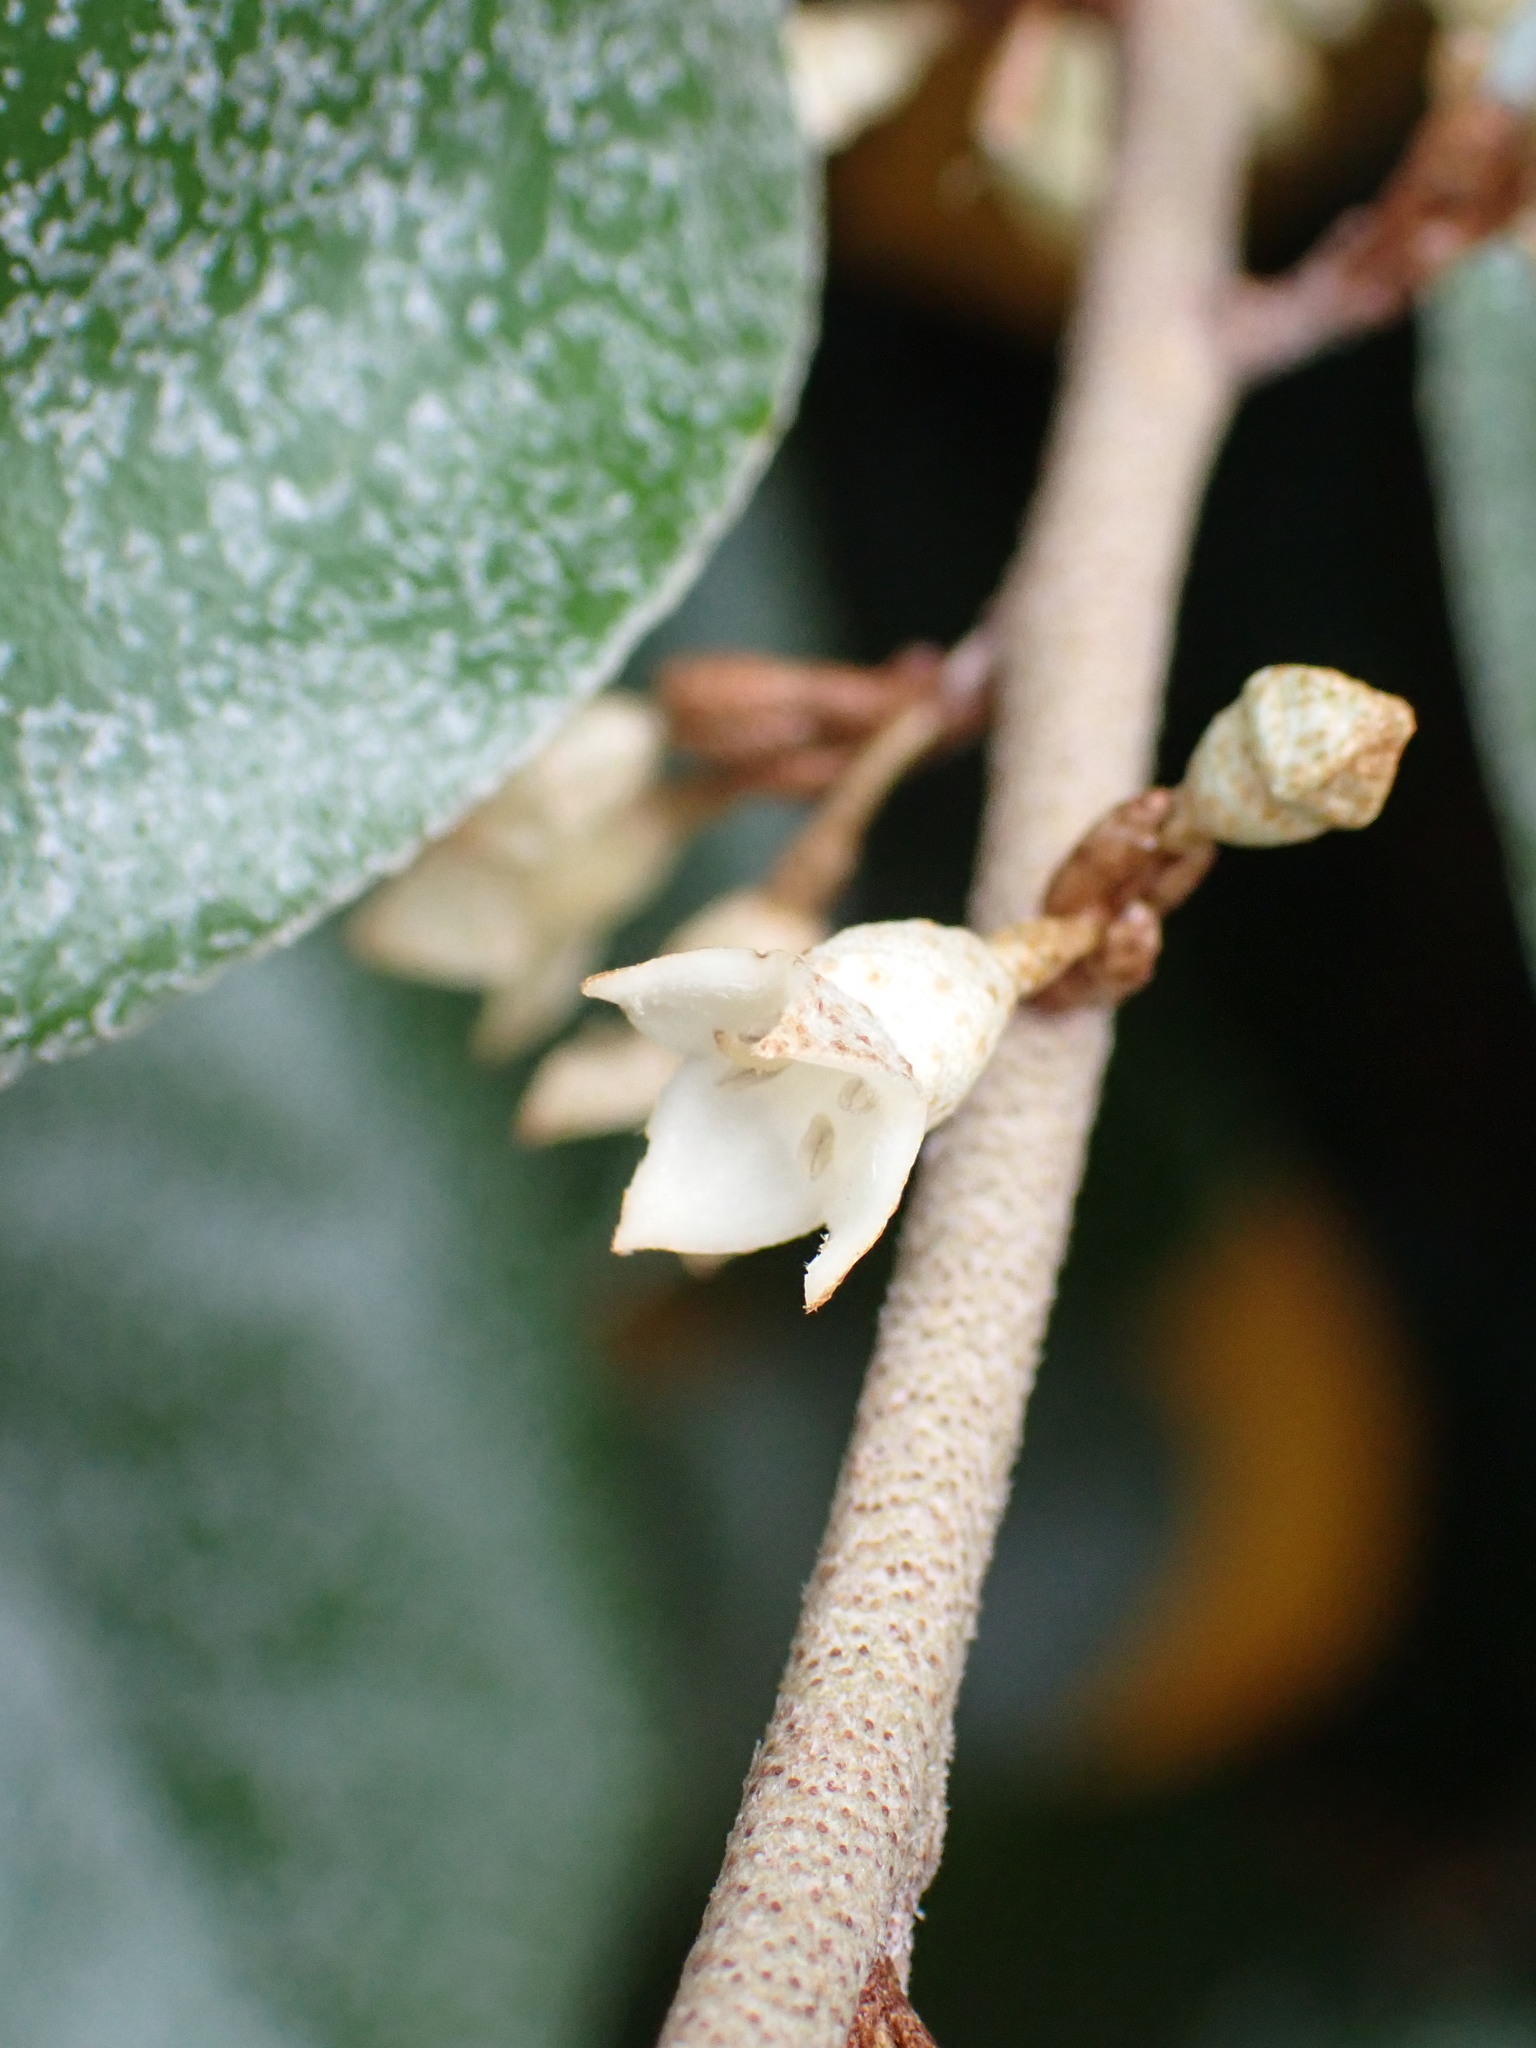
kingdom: Plantae
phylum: Tracheophyta
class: Magnoliopsida
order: Rosales
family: Elaeagnaceae
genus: Elaeagnus
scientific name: Elaeagnus submacrophylla
